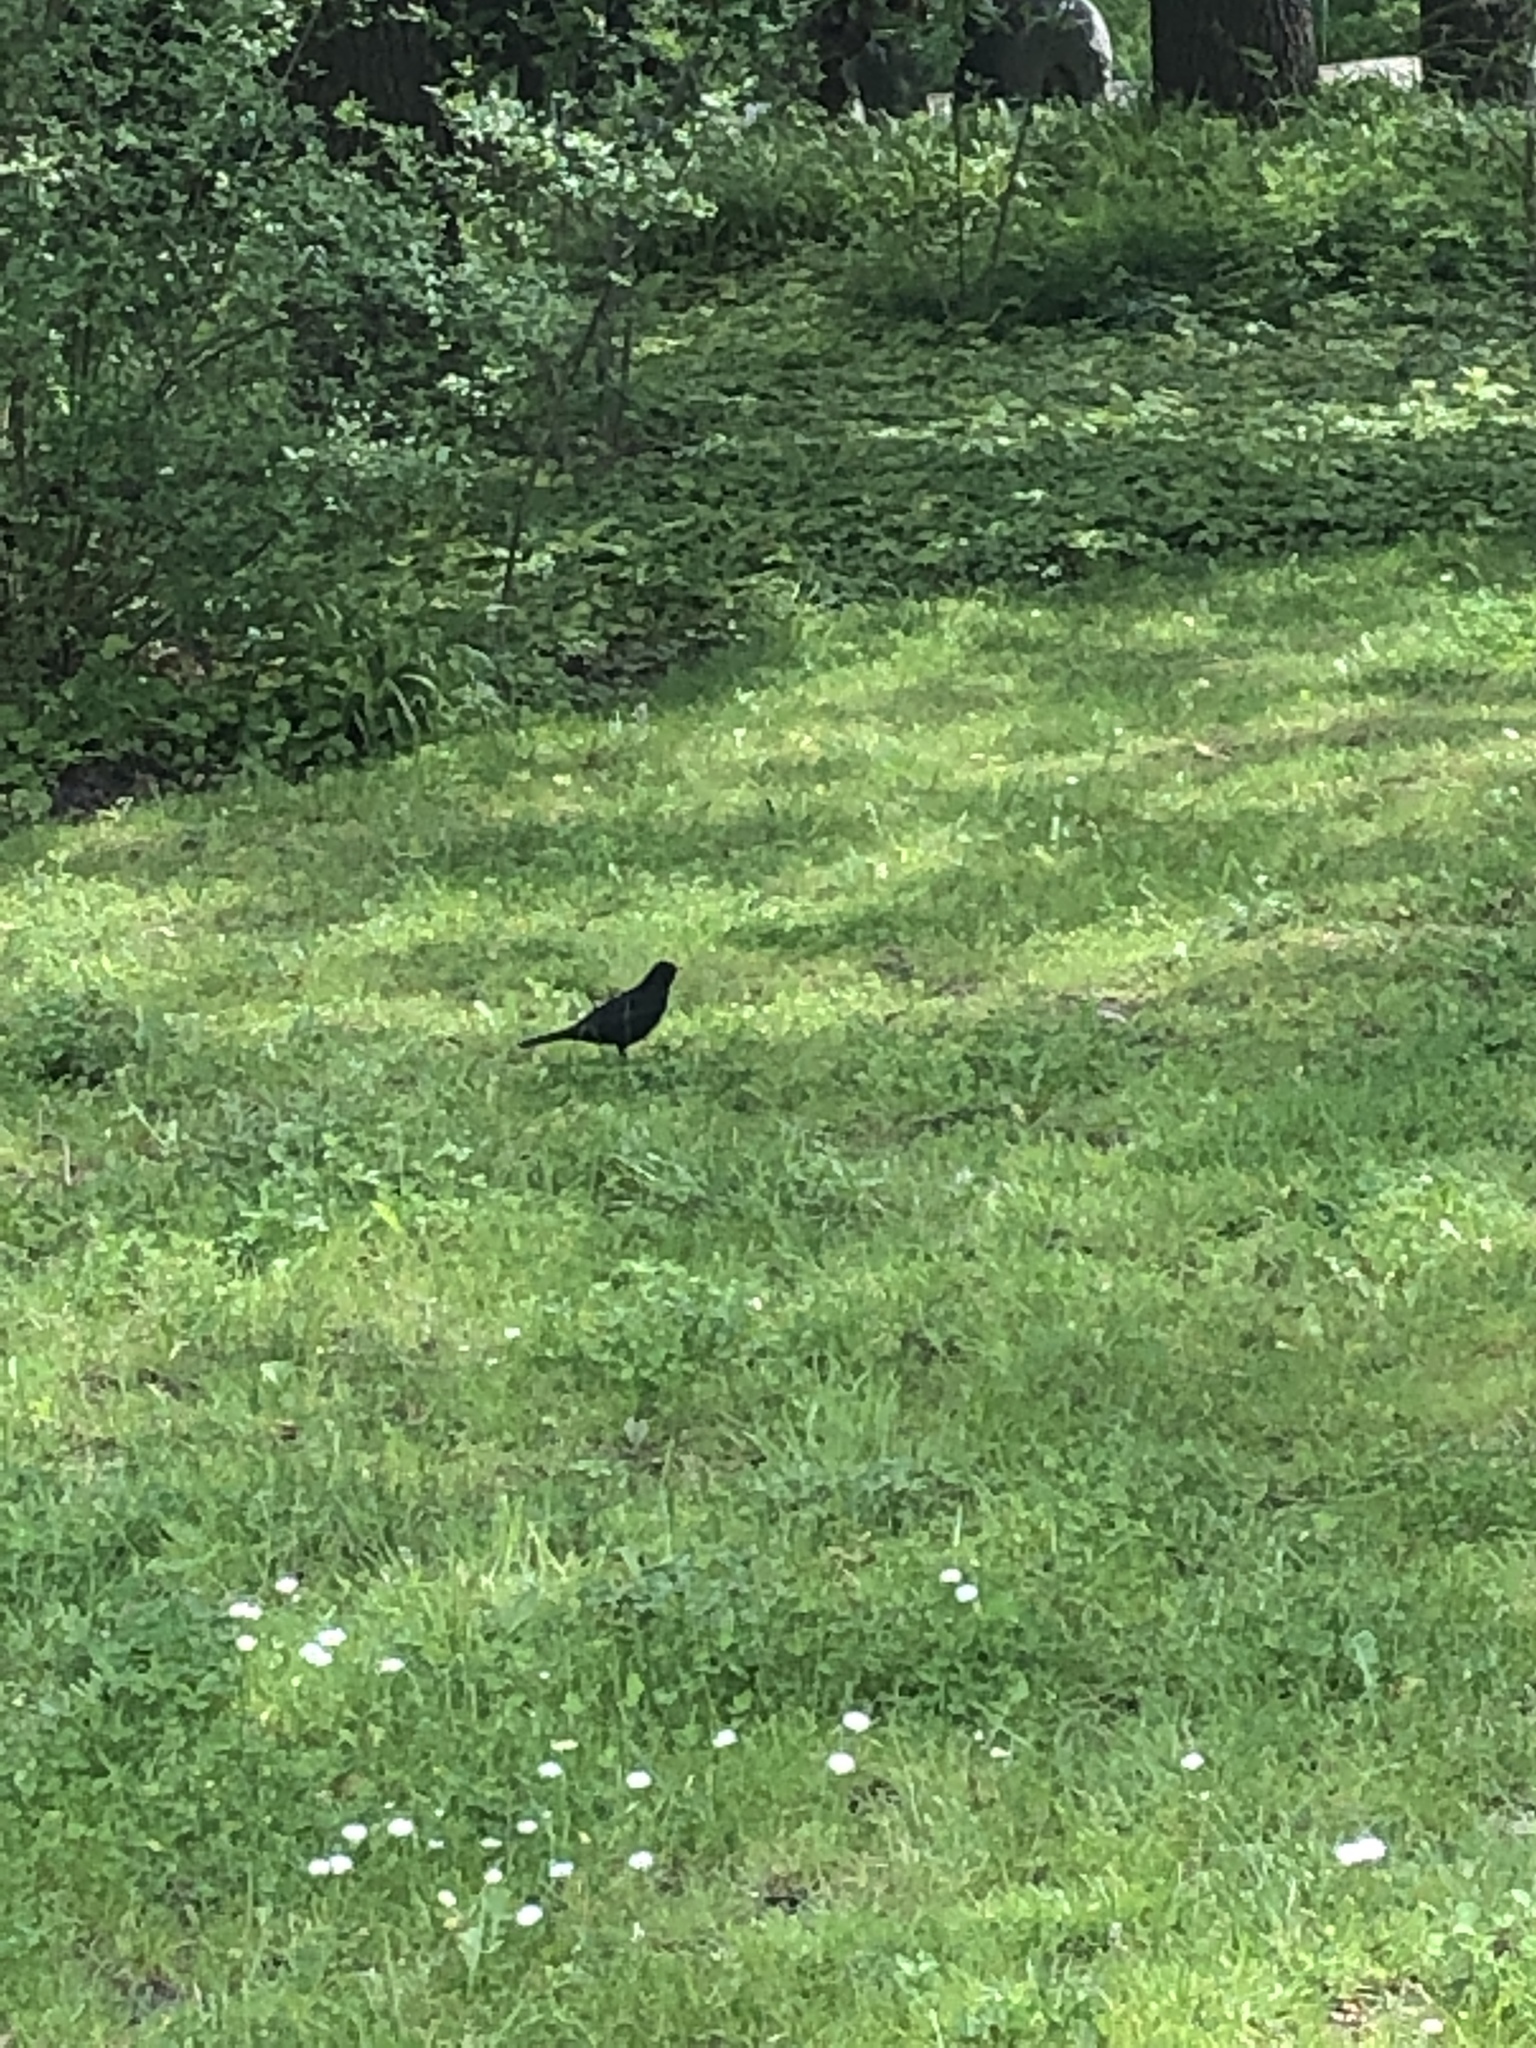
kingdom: Animalia
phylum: Chordata
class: Aves
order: Passeriformes
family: Turdidae
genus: Turdus
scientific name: Turdus merula
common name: Common blackbird
